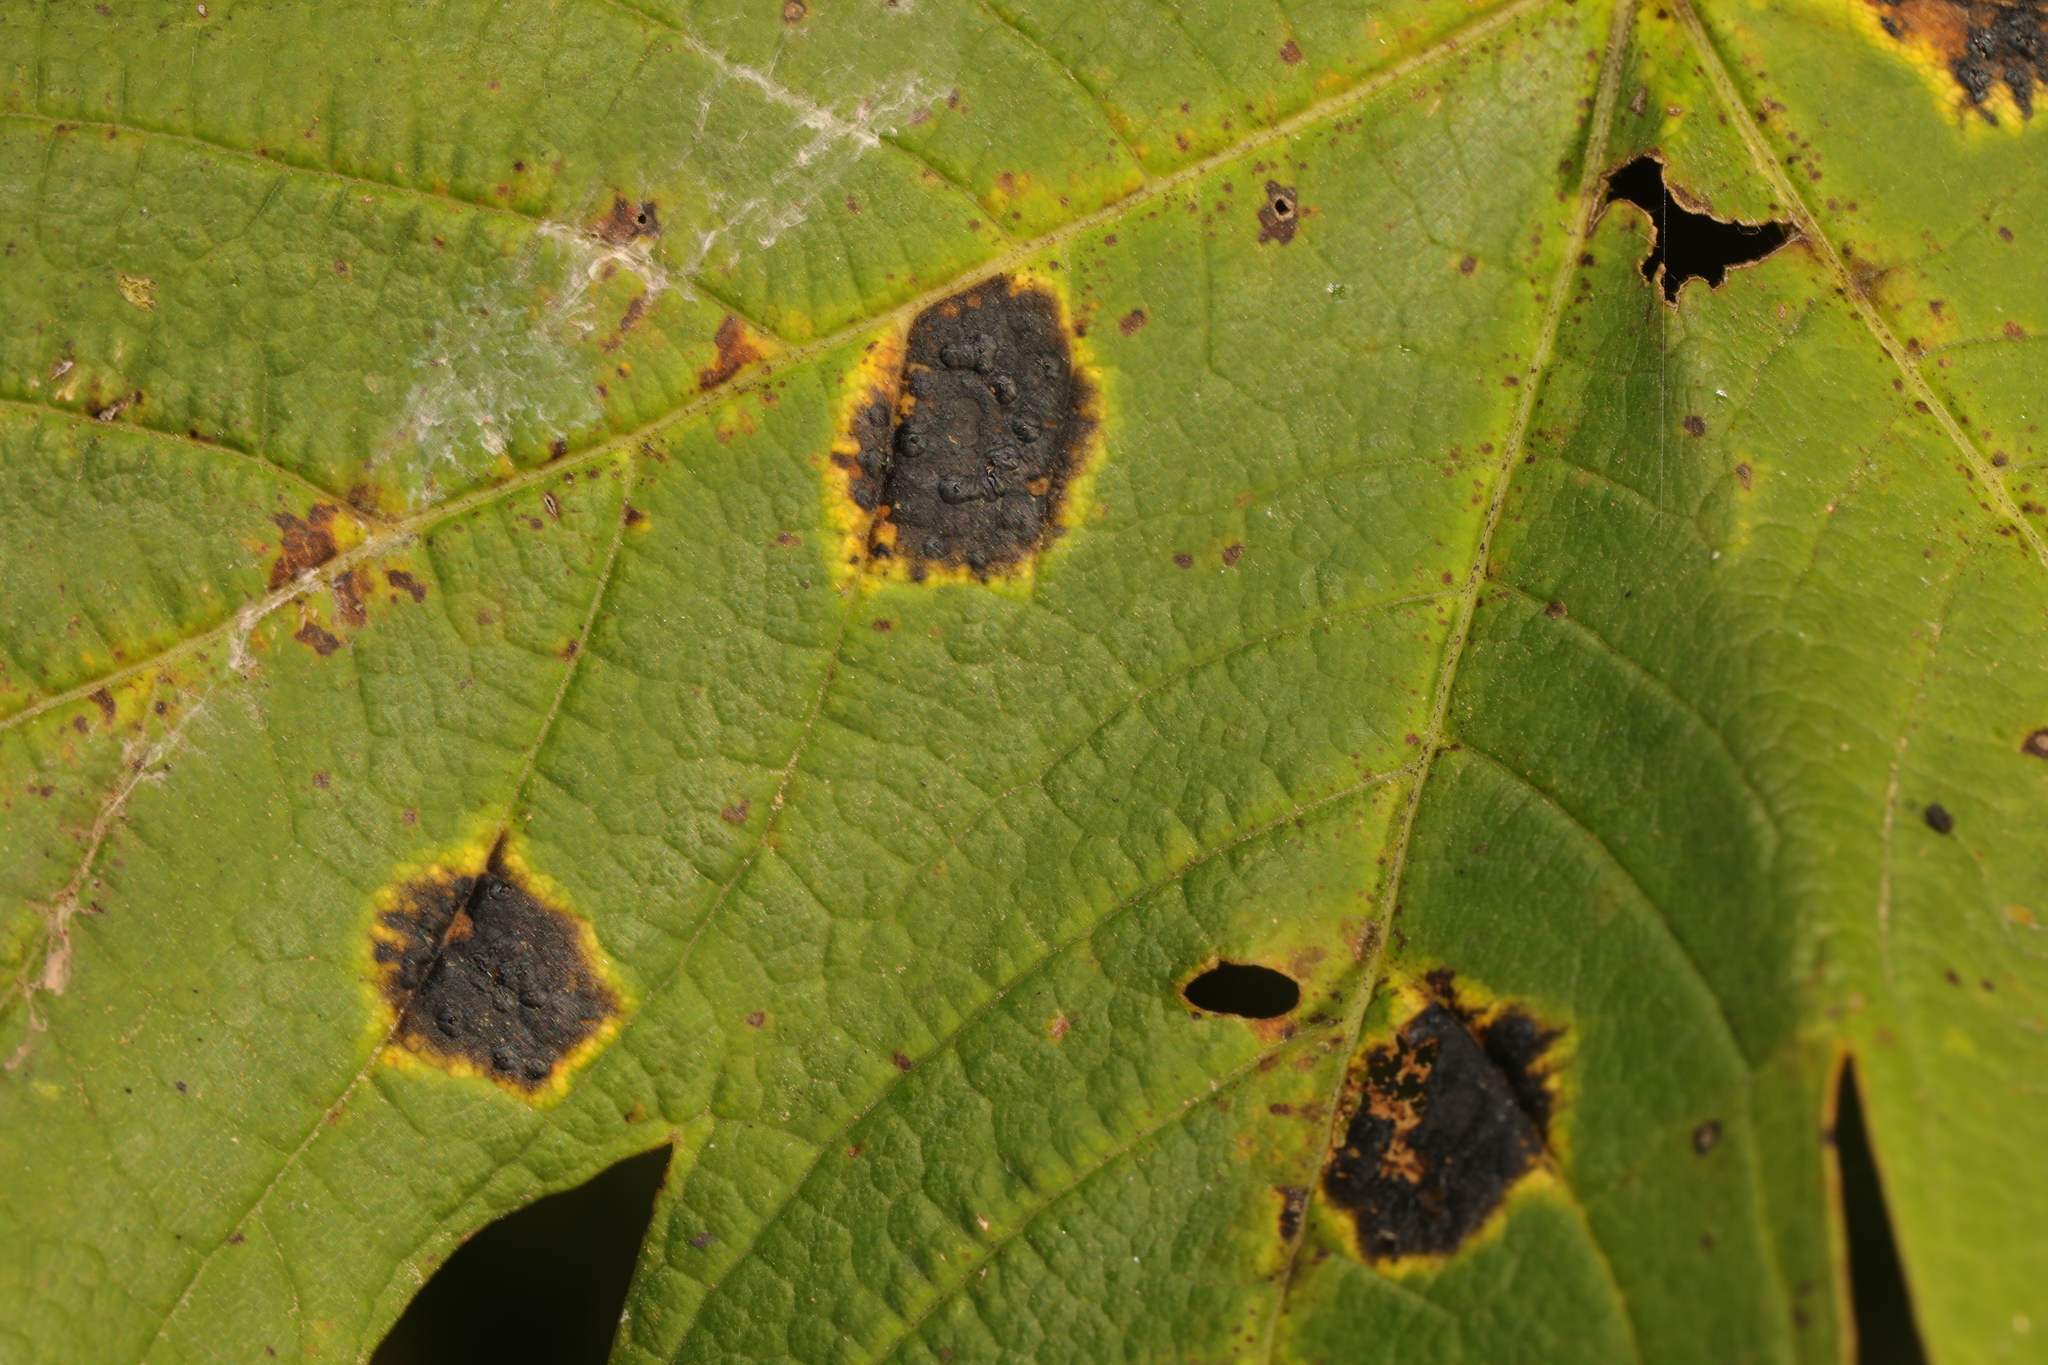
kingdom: Fungi
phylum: Ascomycota
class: Leotiomycetes
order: Rhytismatales
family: Rhytismataceae
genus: Rhytisma
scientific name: Rhytisma acerinum
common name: European tar spot
